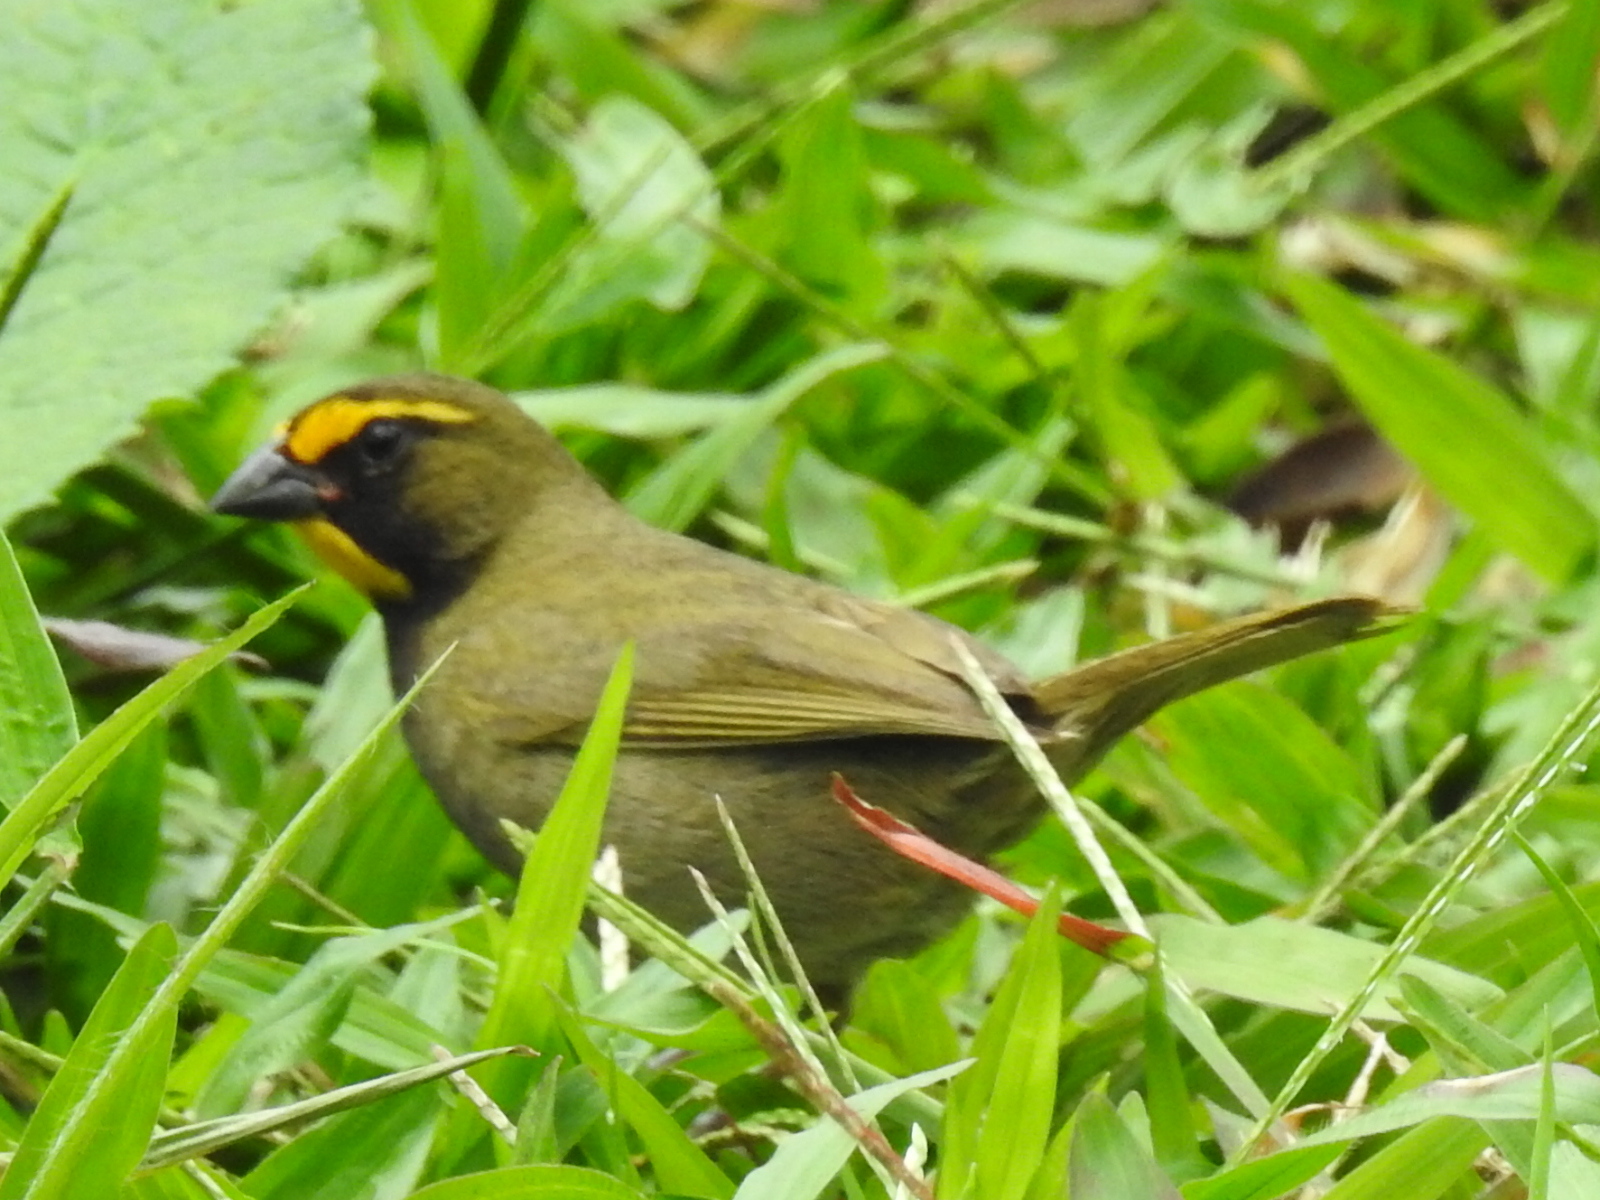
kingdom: Animalia
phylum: Chordata
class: Aves
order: Passeriformes
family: Thraupidae
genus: Tiaris
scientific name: Tiaris olivaceus
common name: Yellow-faced grassquit
